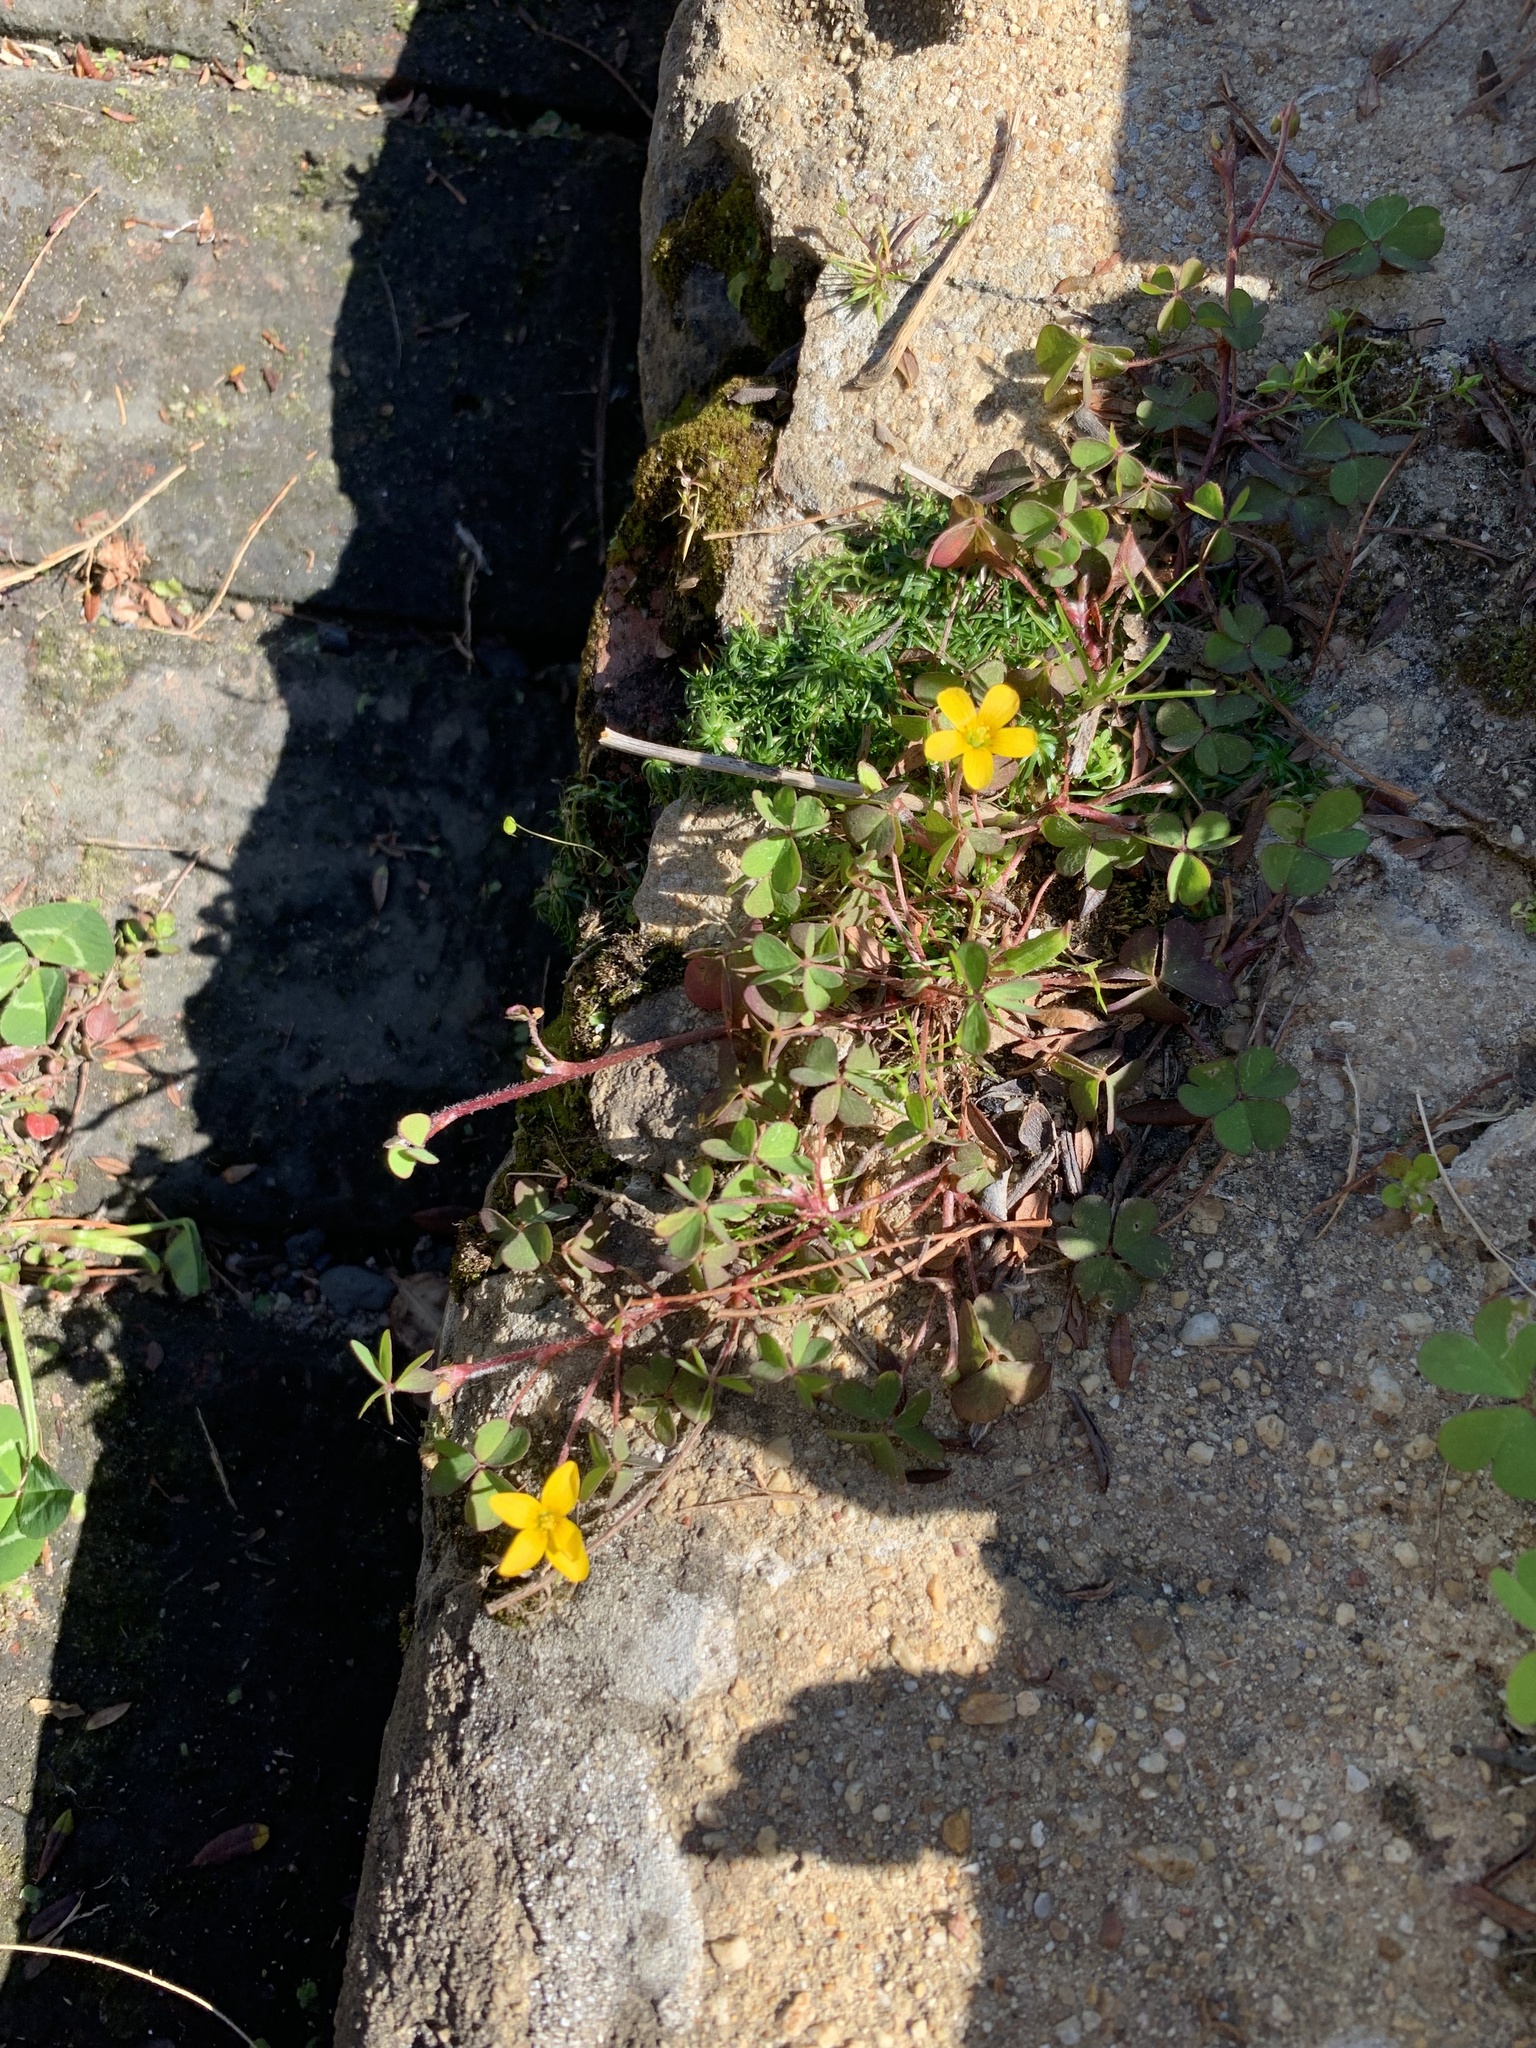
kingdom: Plantae
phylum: Tracheophyta
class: Magnoliopsida
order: Oxalidales
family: Oxalidaceae
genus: Oxalis
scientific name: Oxalis corniculata
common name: Procumbent yellow-sorrel
